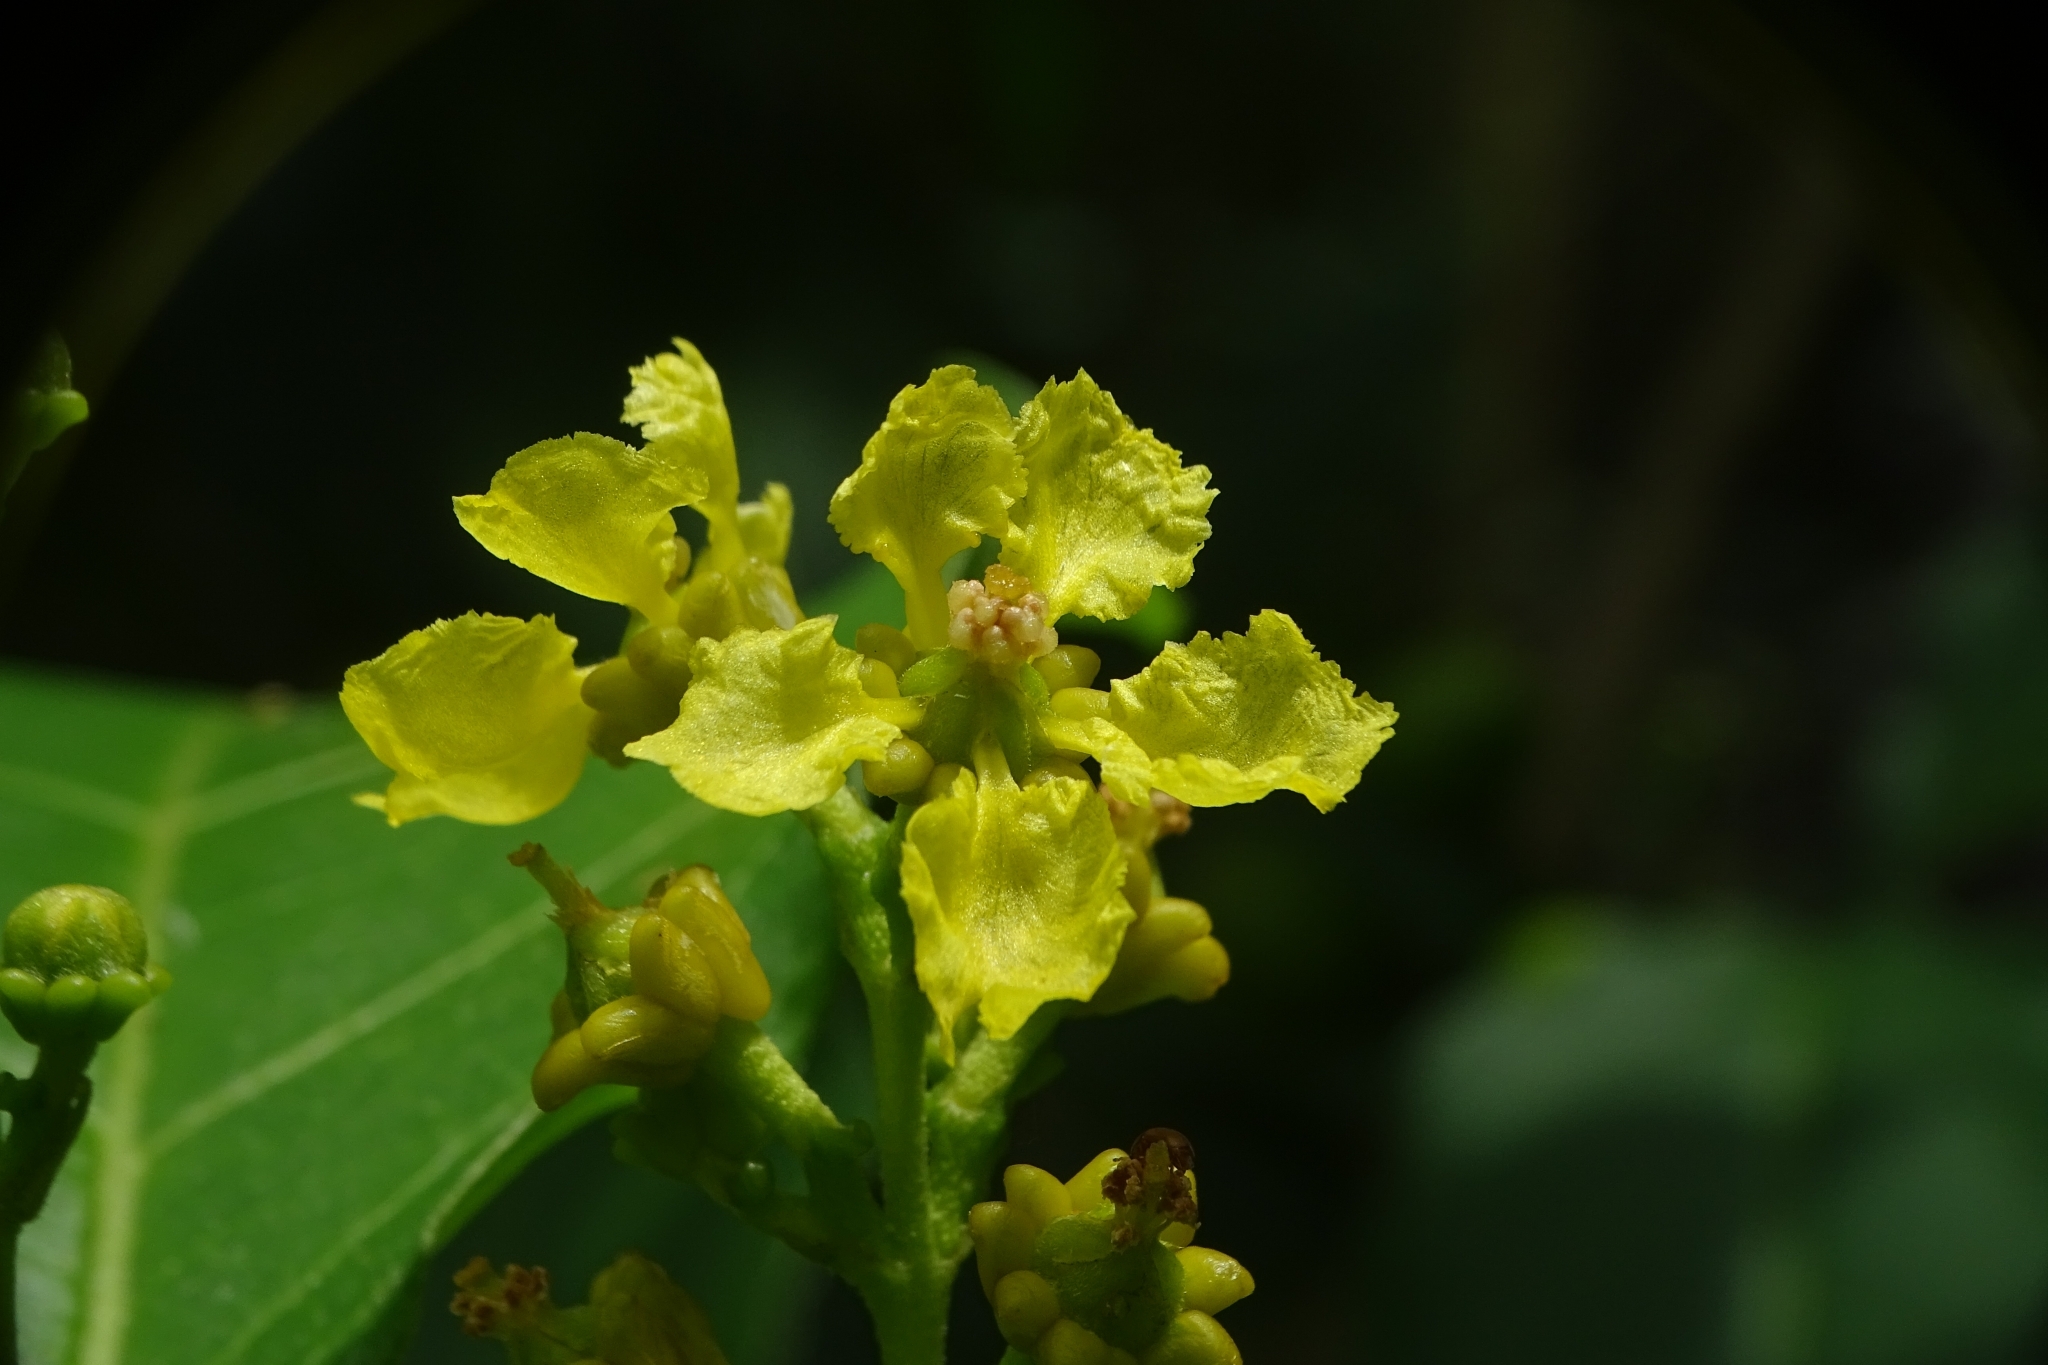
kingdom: Plantae
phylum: Tracheophyta
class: Magnoliopsida
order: Malpighiales
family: Malpighiaceae
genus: Bunchosia
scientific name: Bunchosia argentea
